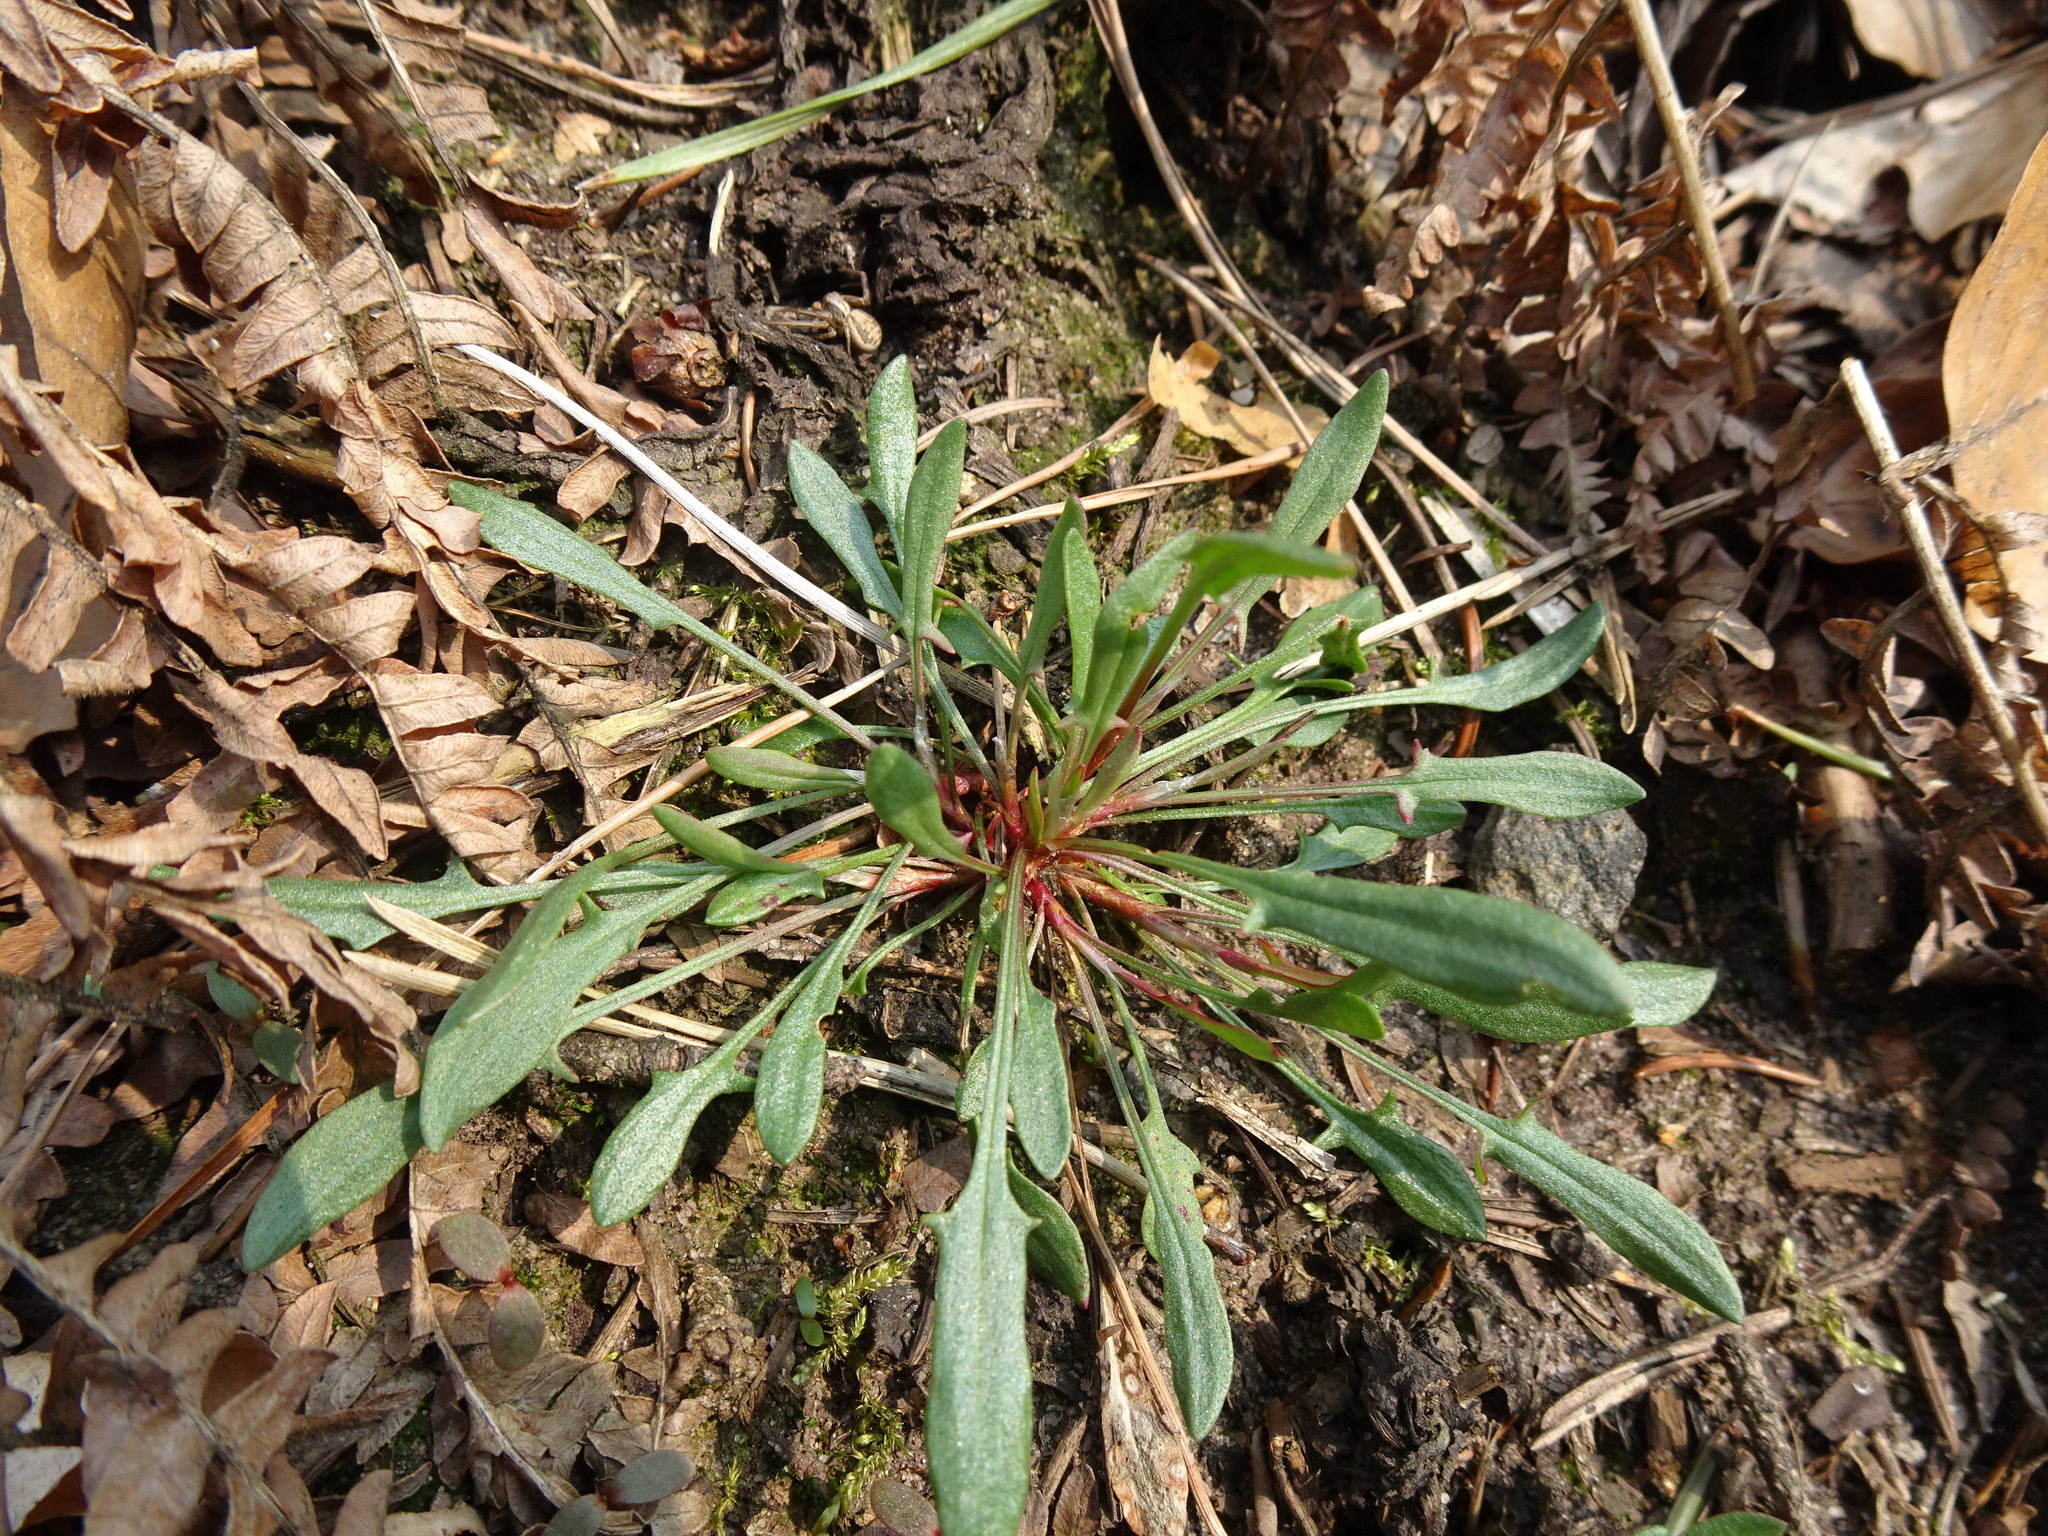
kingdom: Plantae
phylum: Tracheophyta
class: Magnoliopsida
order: Caryophyllales
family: Polygonaceae
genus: Rumex
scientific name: Rumex acetosella
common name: Common sheep sorrel
